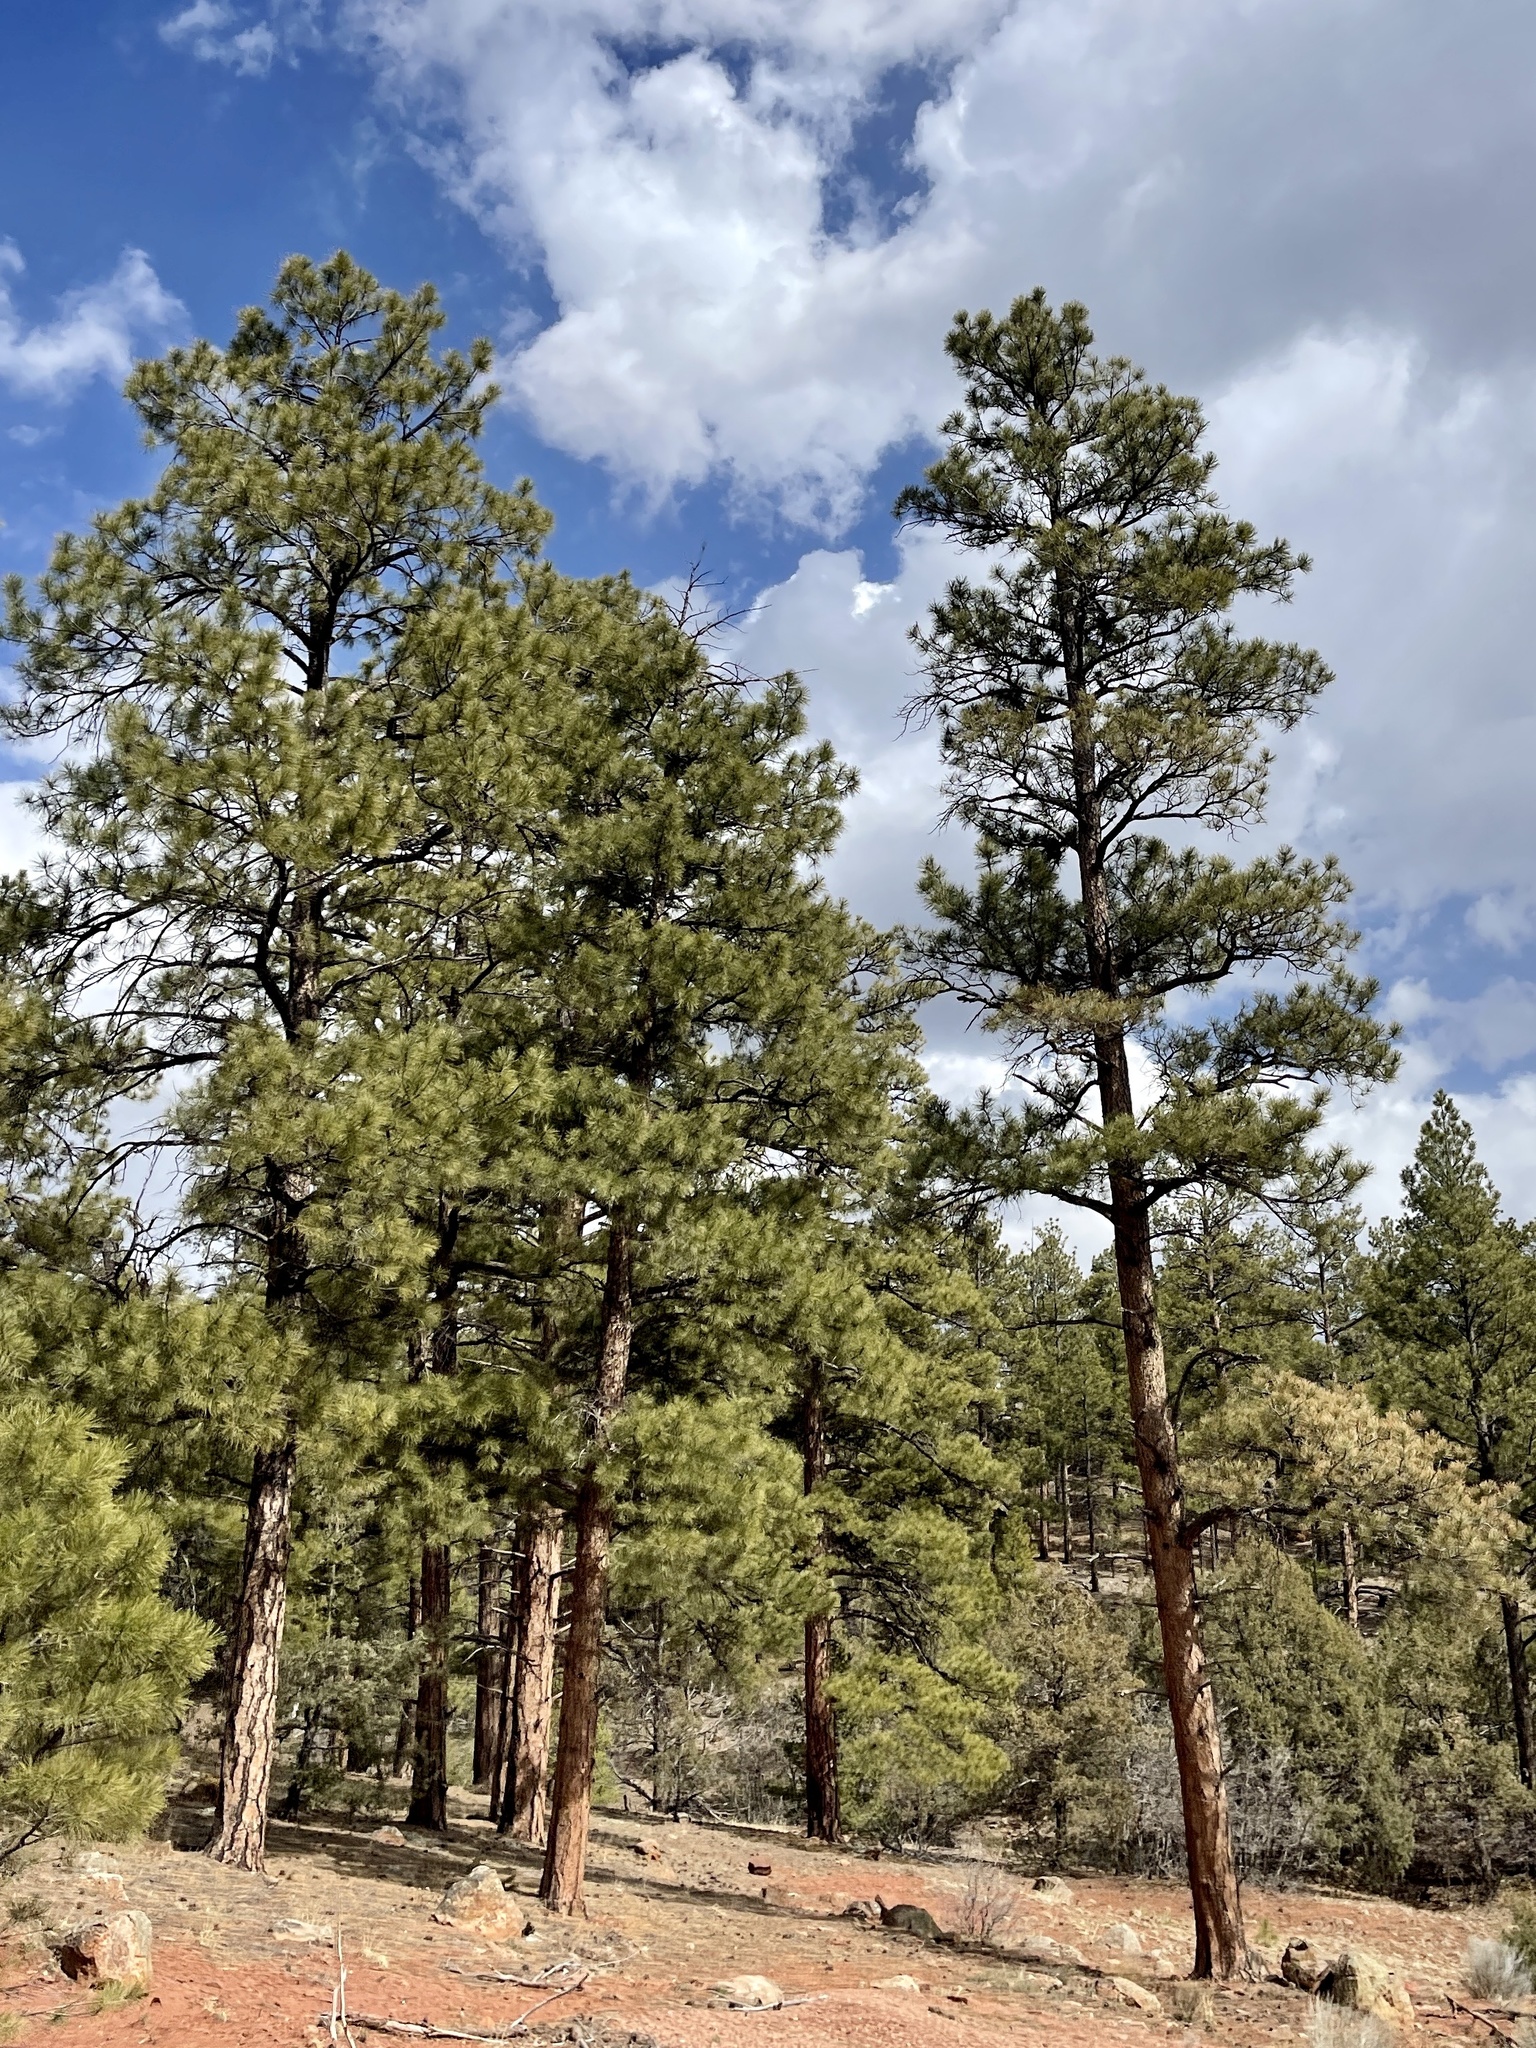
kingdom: Plantae
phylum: Tracheophyta
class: Pinopsida
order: Pinales
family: Pinaceae
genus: Pinus
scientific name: Pinus ponderosa
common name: Western yellow-pine
